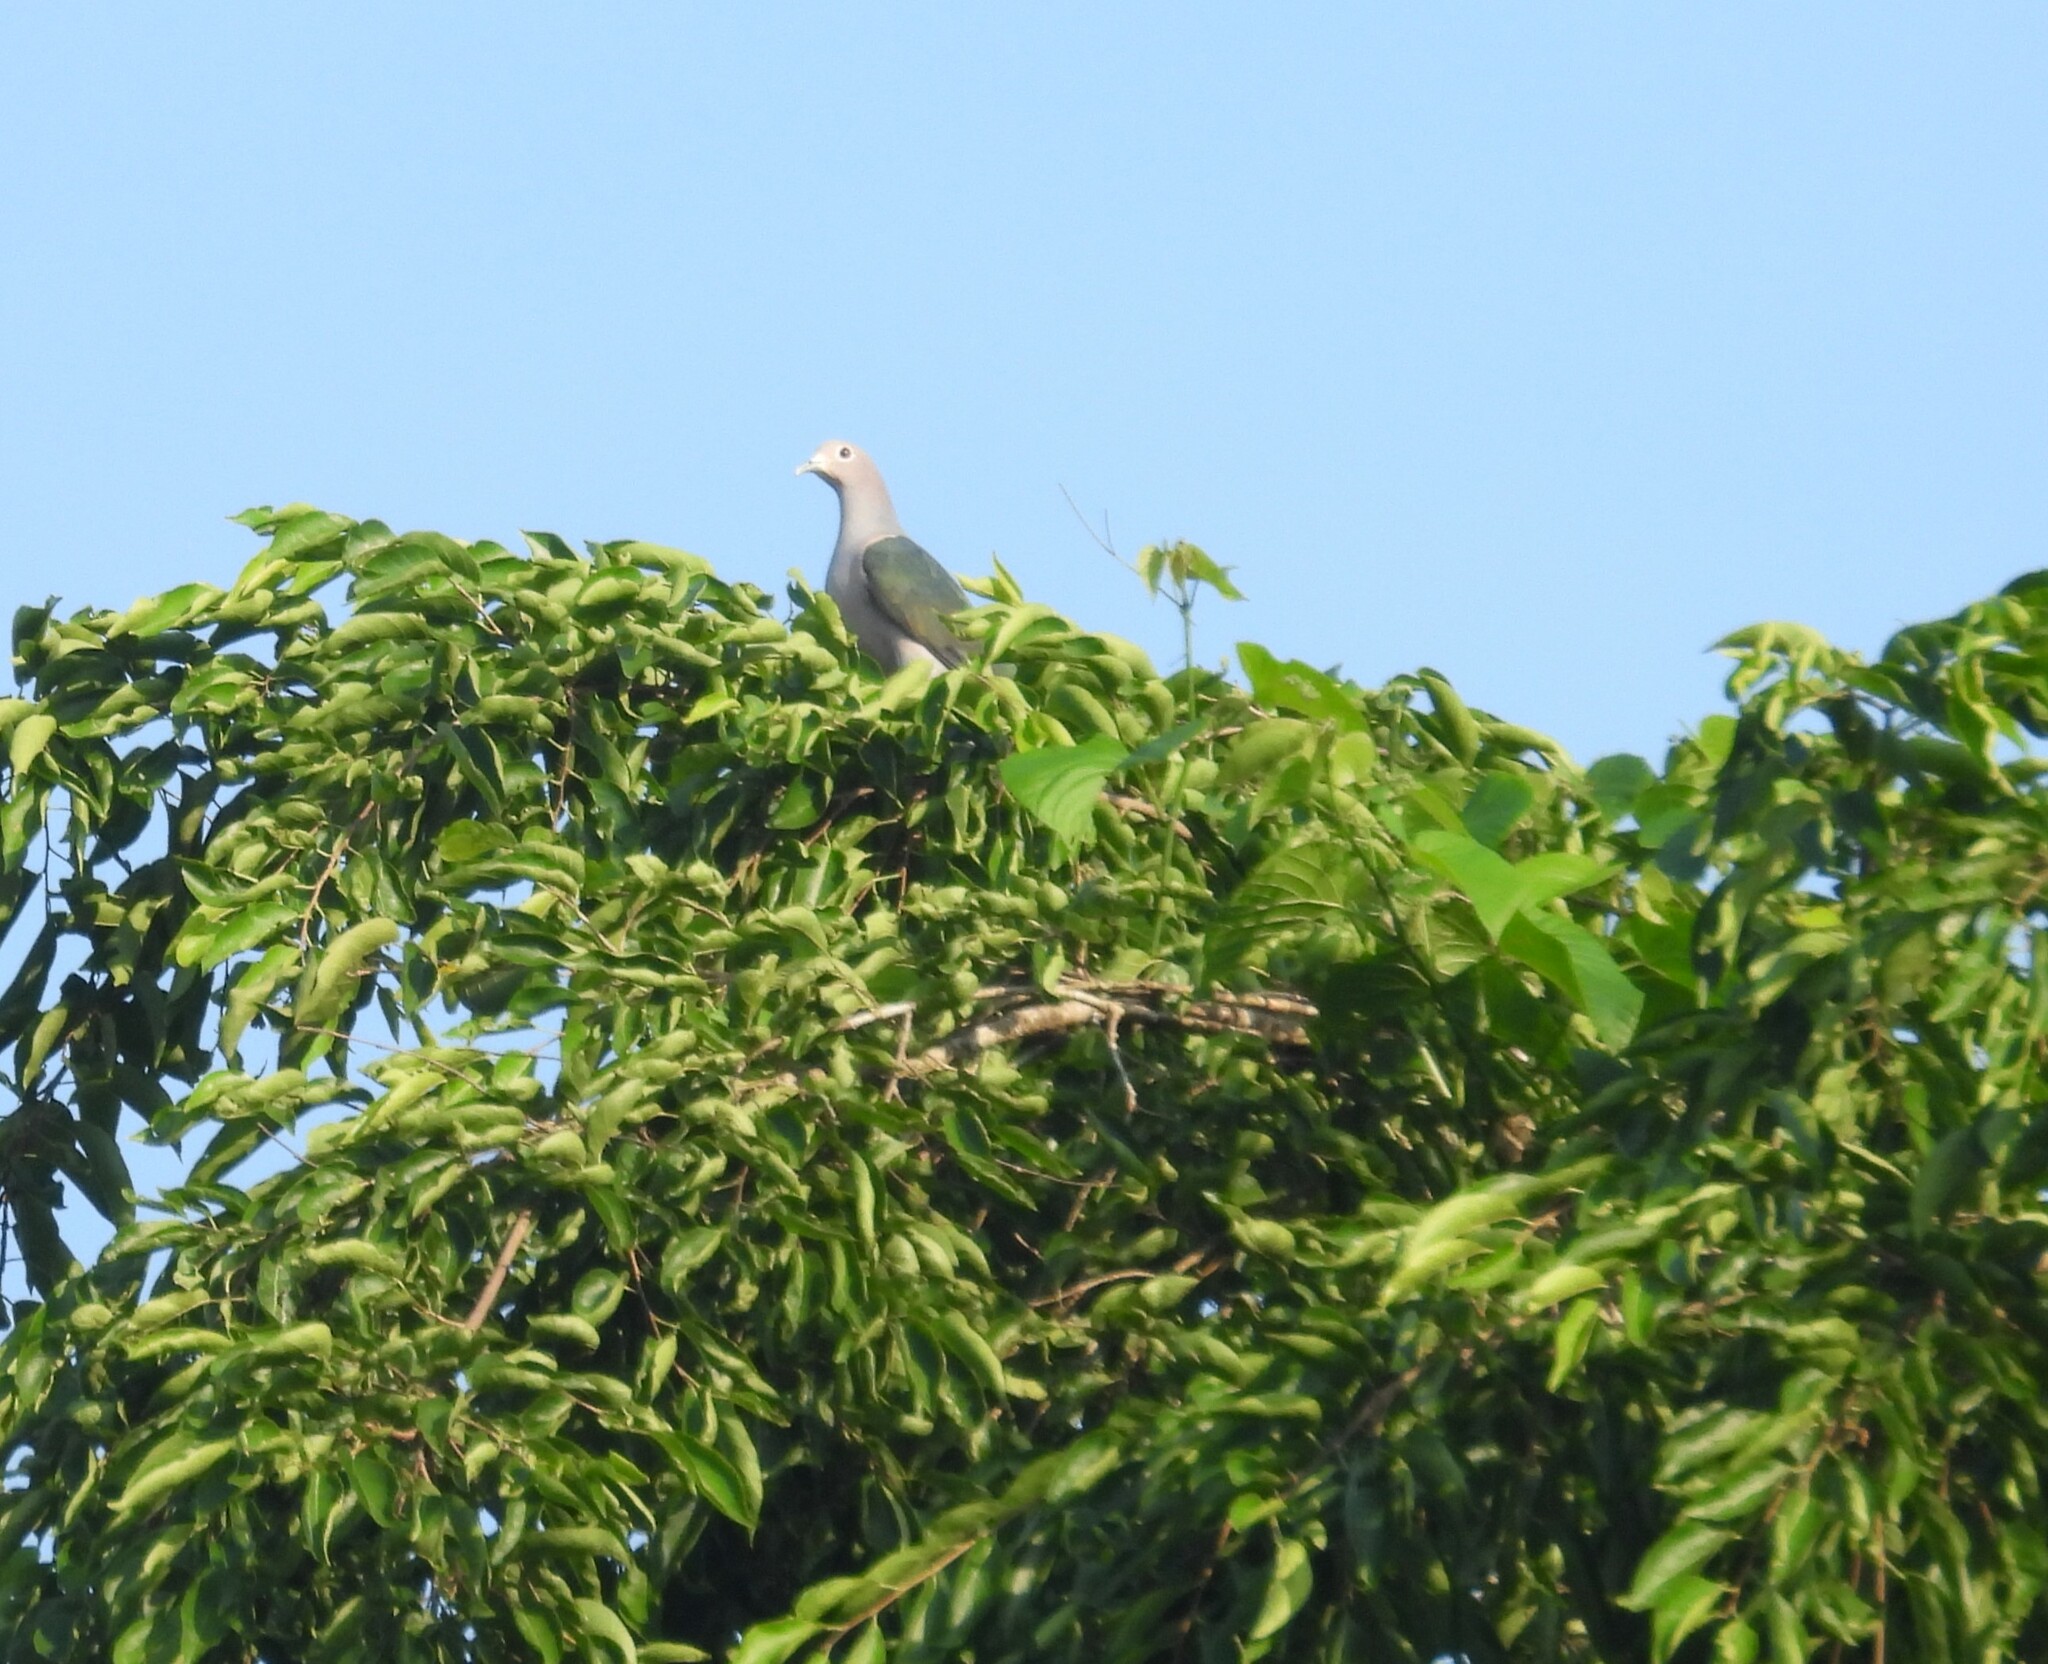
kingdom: Animalia
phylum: Chordata
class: Aves
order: Columbiformes
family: Columbidae
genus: Ducula
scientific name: Ducula aenea
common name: Green imperial pigeon
